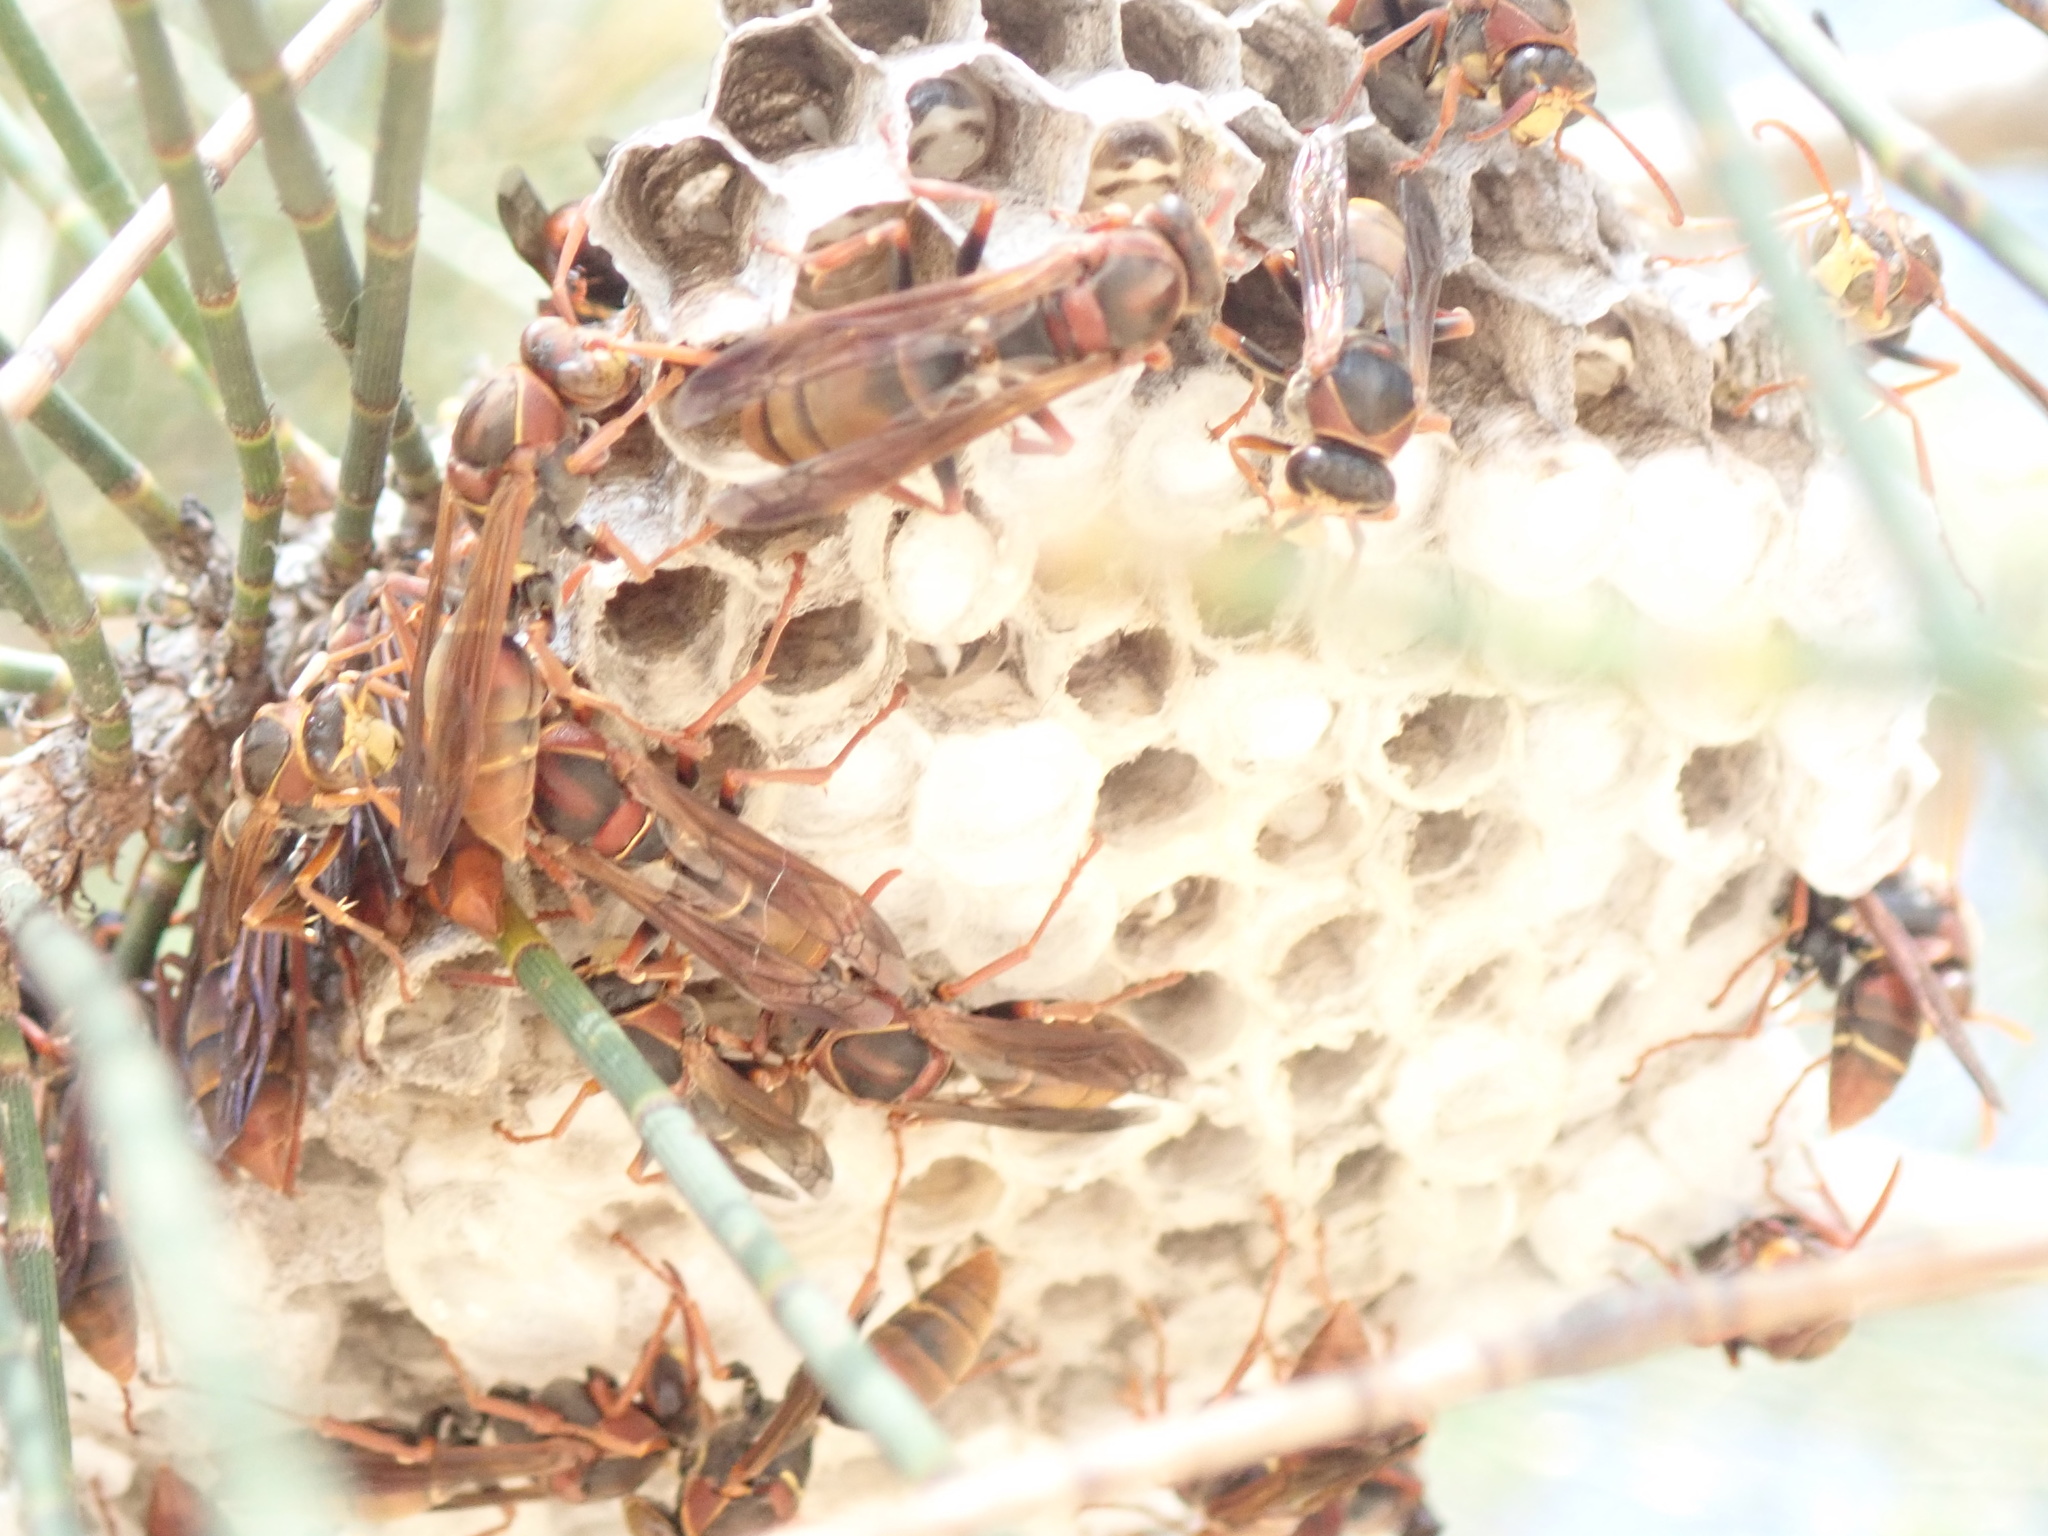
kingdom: Animalia
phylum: Arthropoda
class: Insecta
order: Hymenoptera
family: Eumenidae
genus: Polistes
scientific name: Polistes humilis
